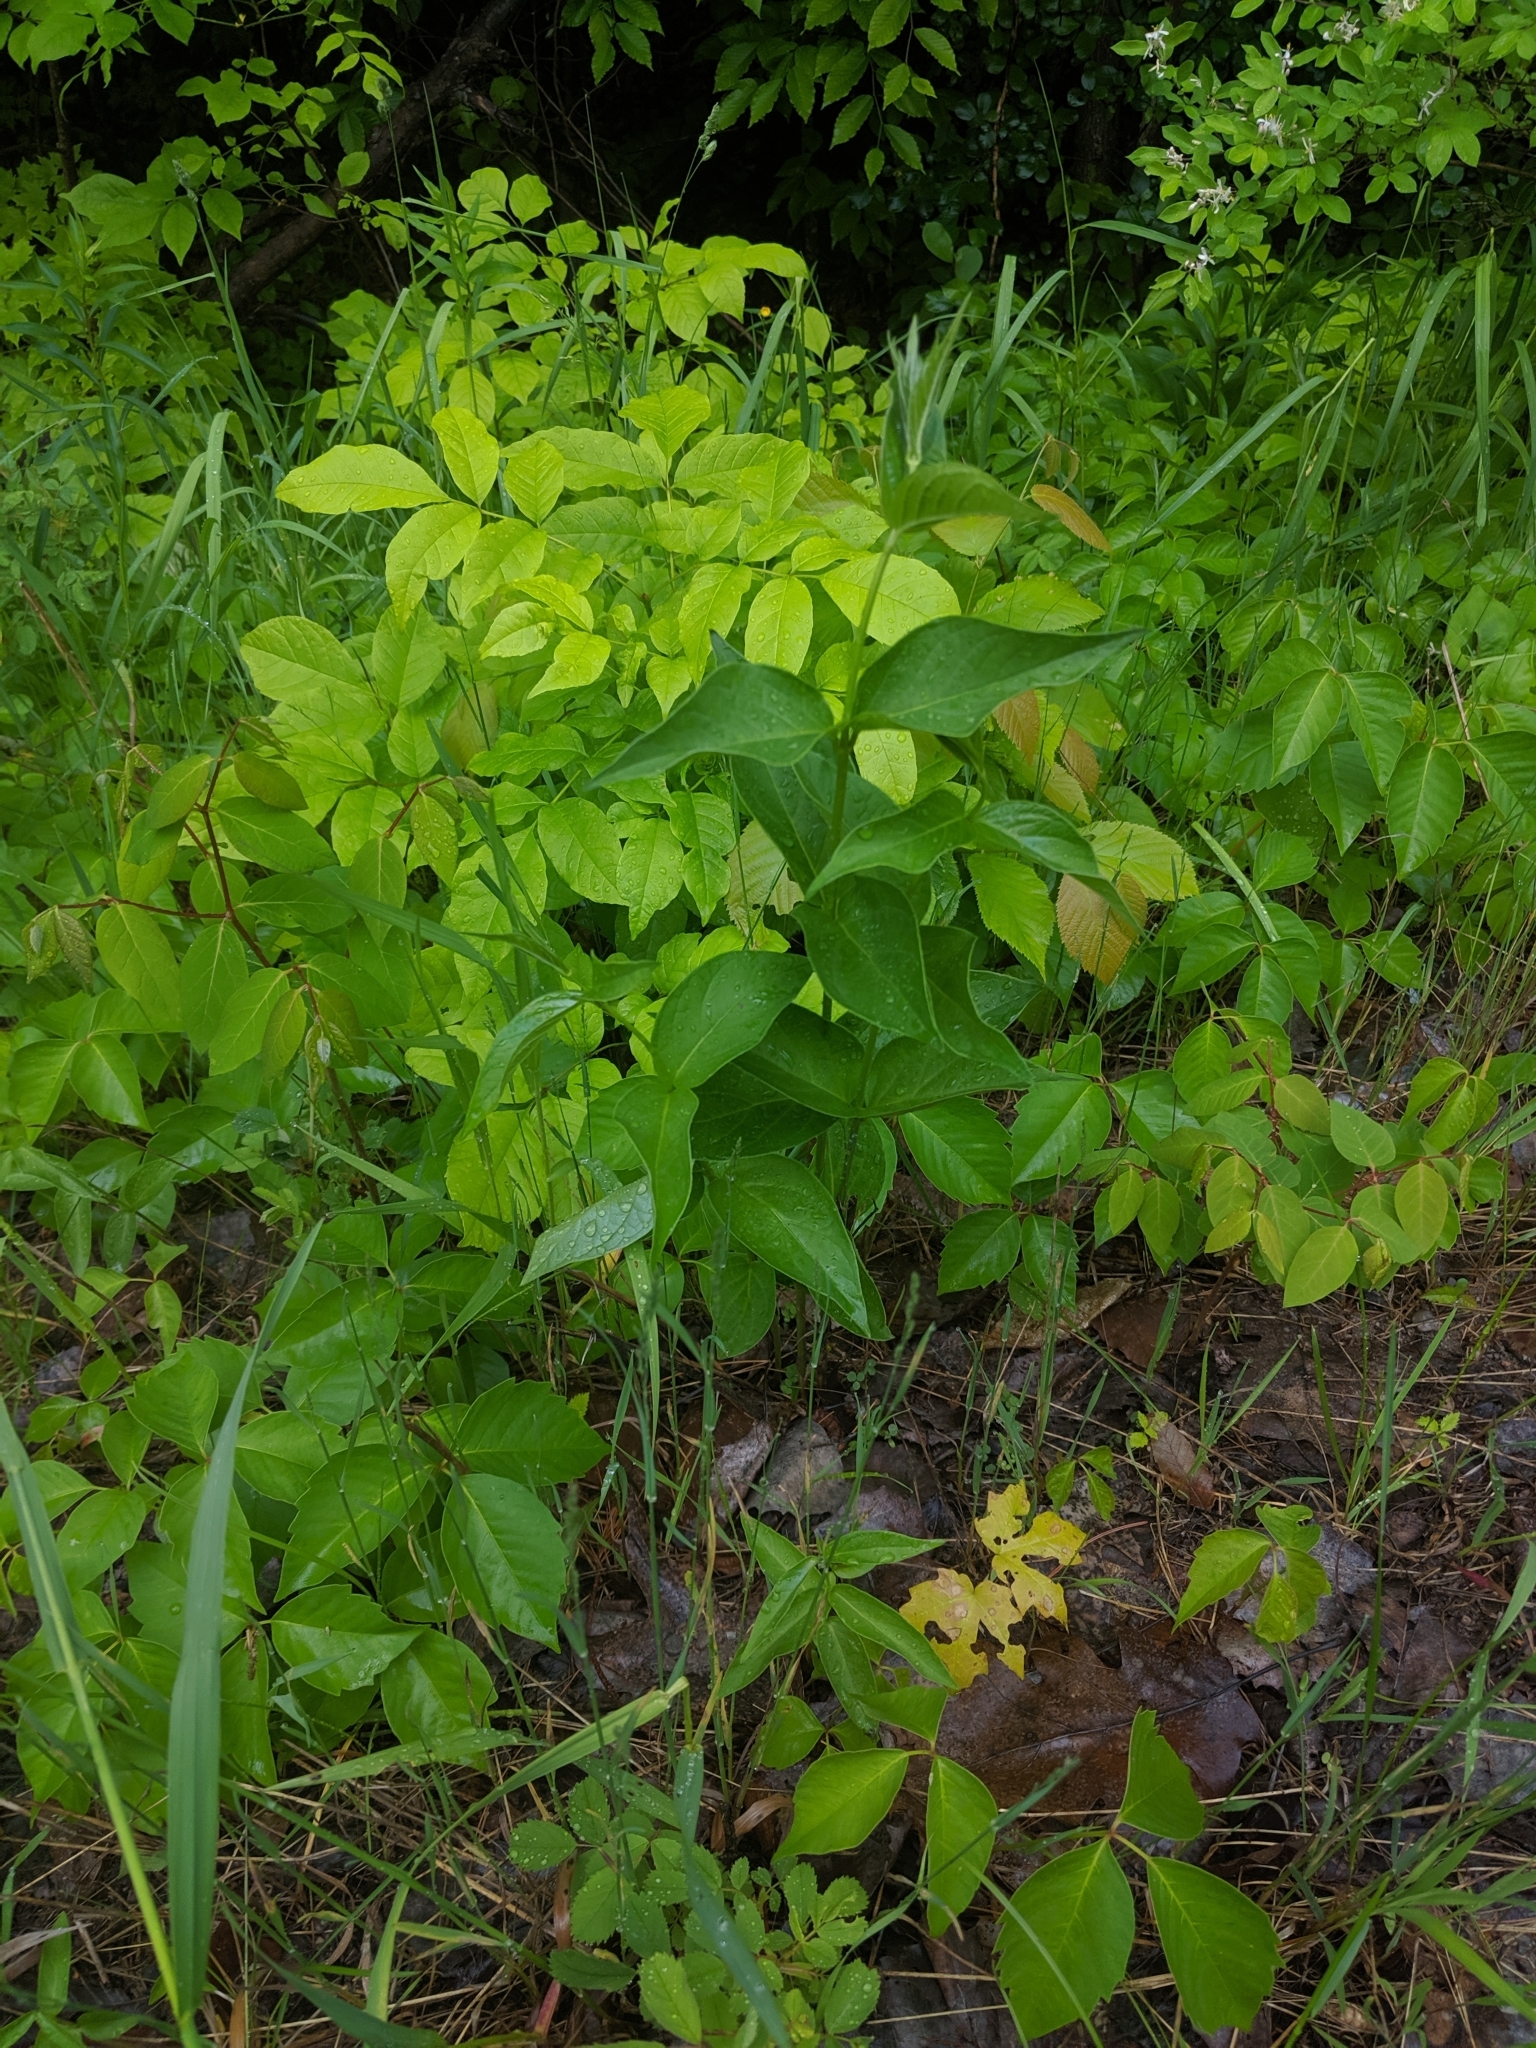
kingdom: Plantae
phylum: Tracheophyta
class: Magnoliopsida
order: Gentianales
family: Apocynaceae
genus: Vincetoxicum
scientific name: Vincetoxicum rossicum
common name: Dog-strangling vine
